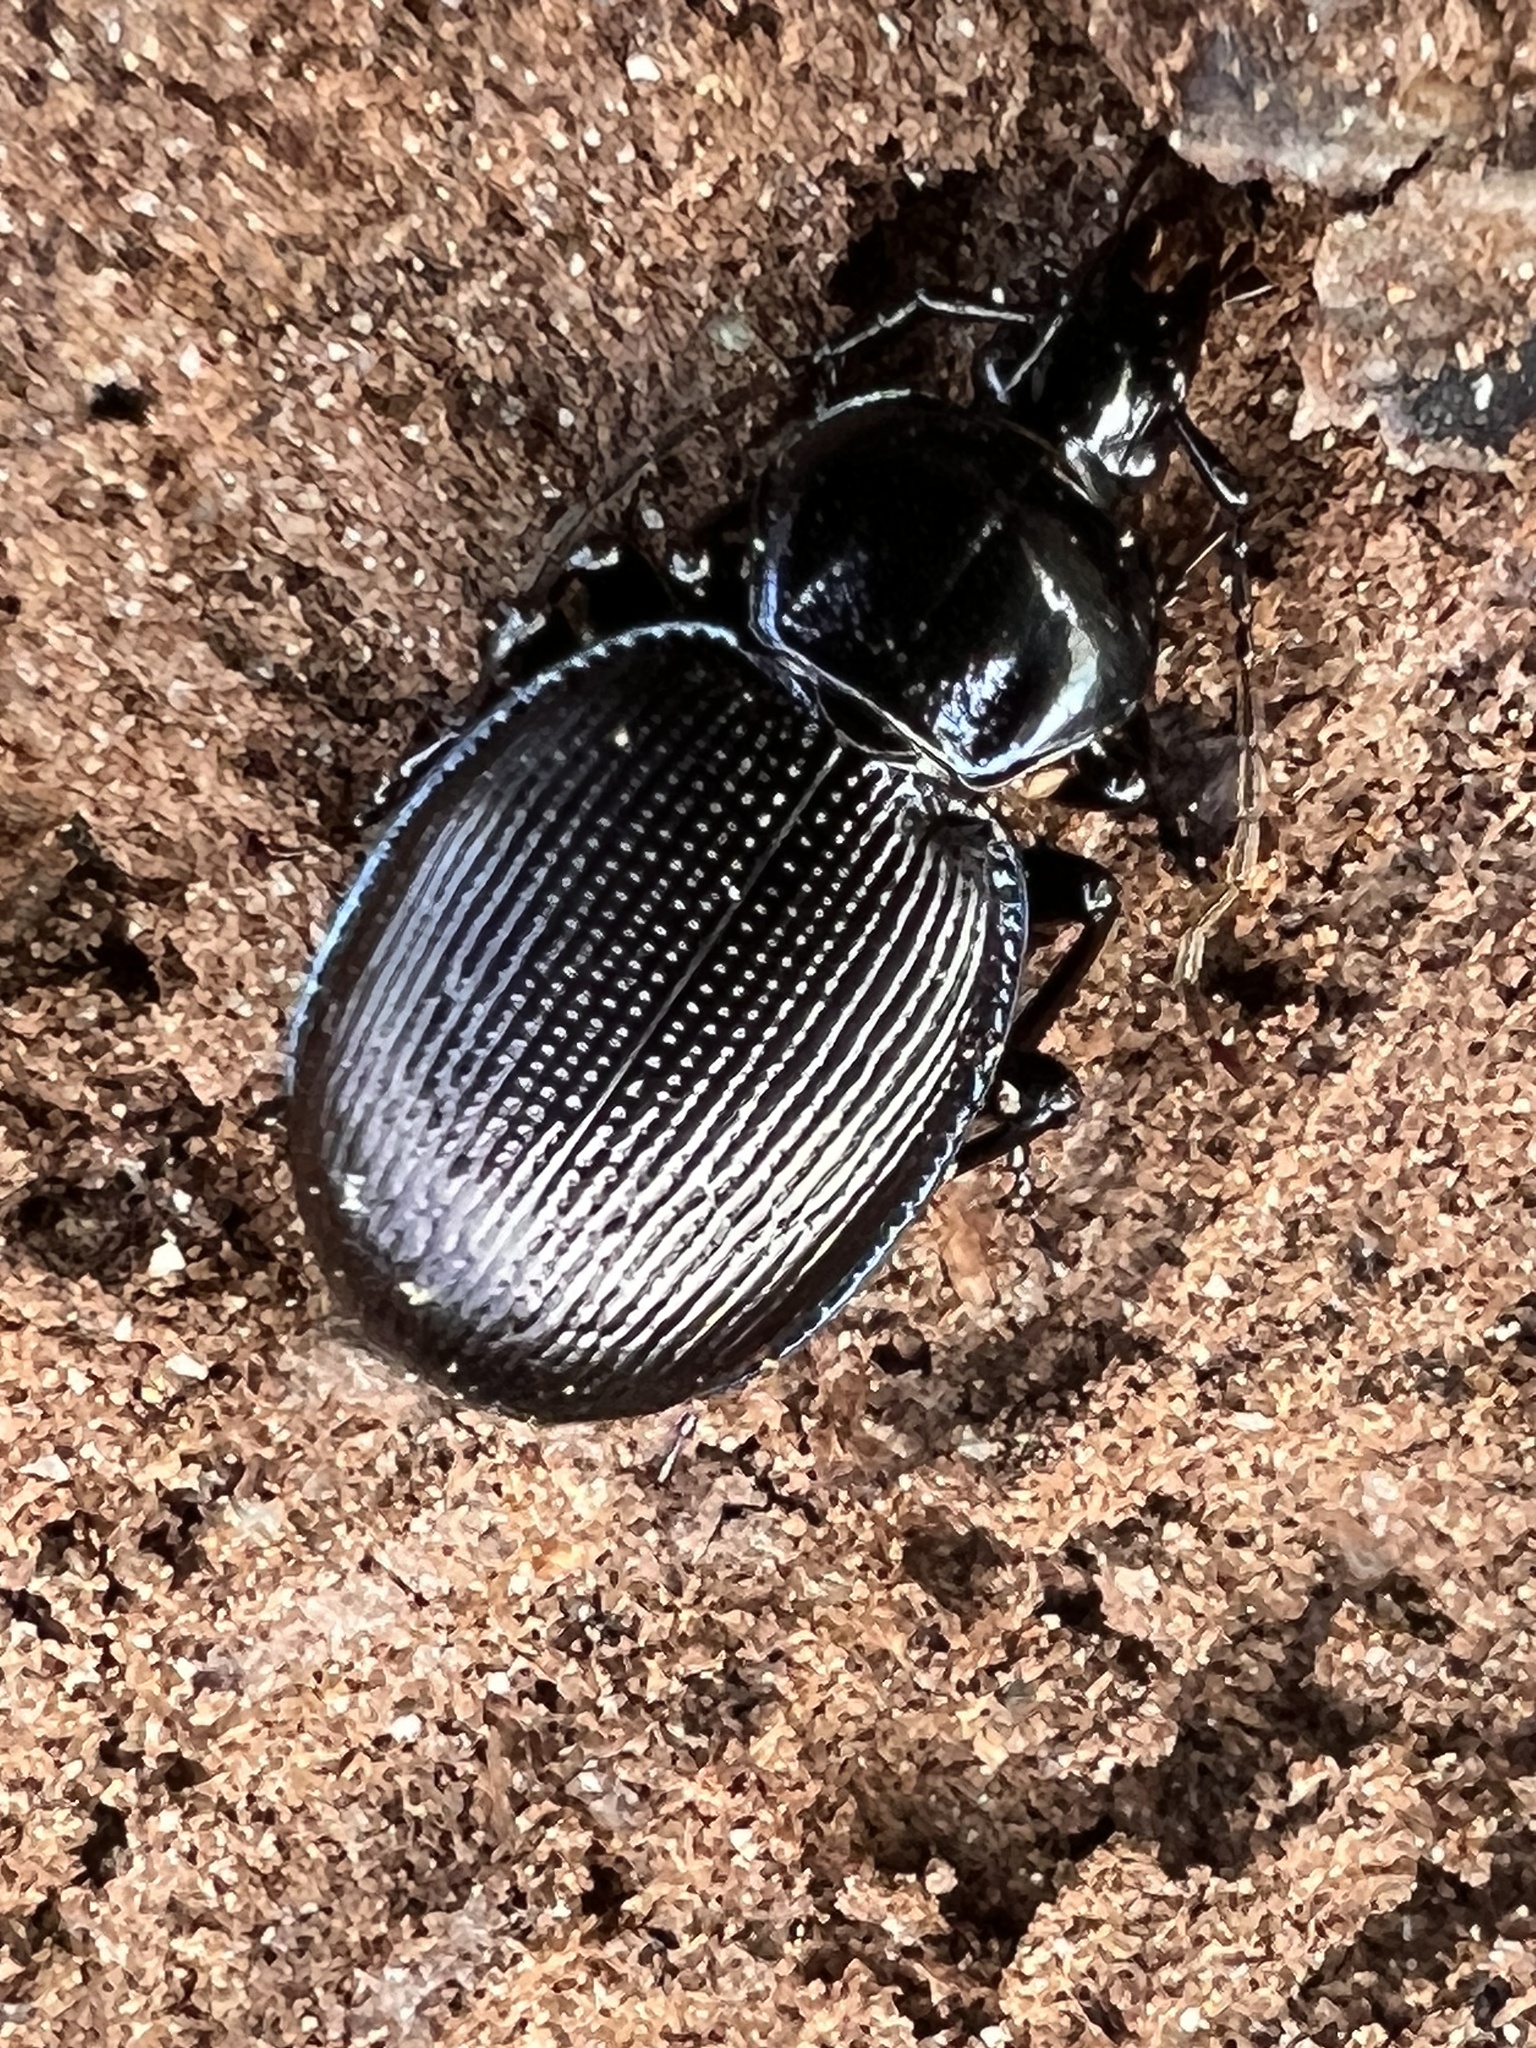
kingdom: Animalia
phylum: Arthropoda
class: Insecta
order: Coleoptera
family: Carabidae
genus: Sphaeroderus
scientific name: Sphaeroderus stenostomus
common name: Small snail-eating ground beetle
